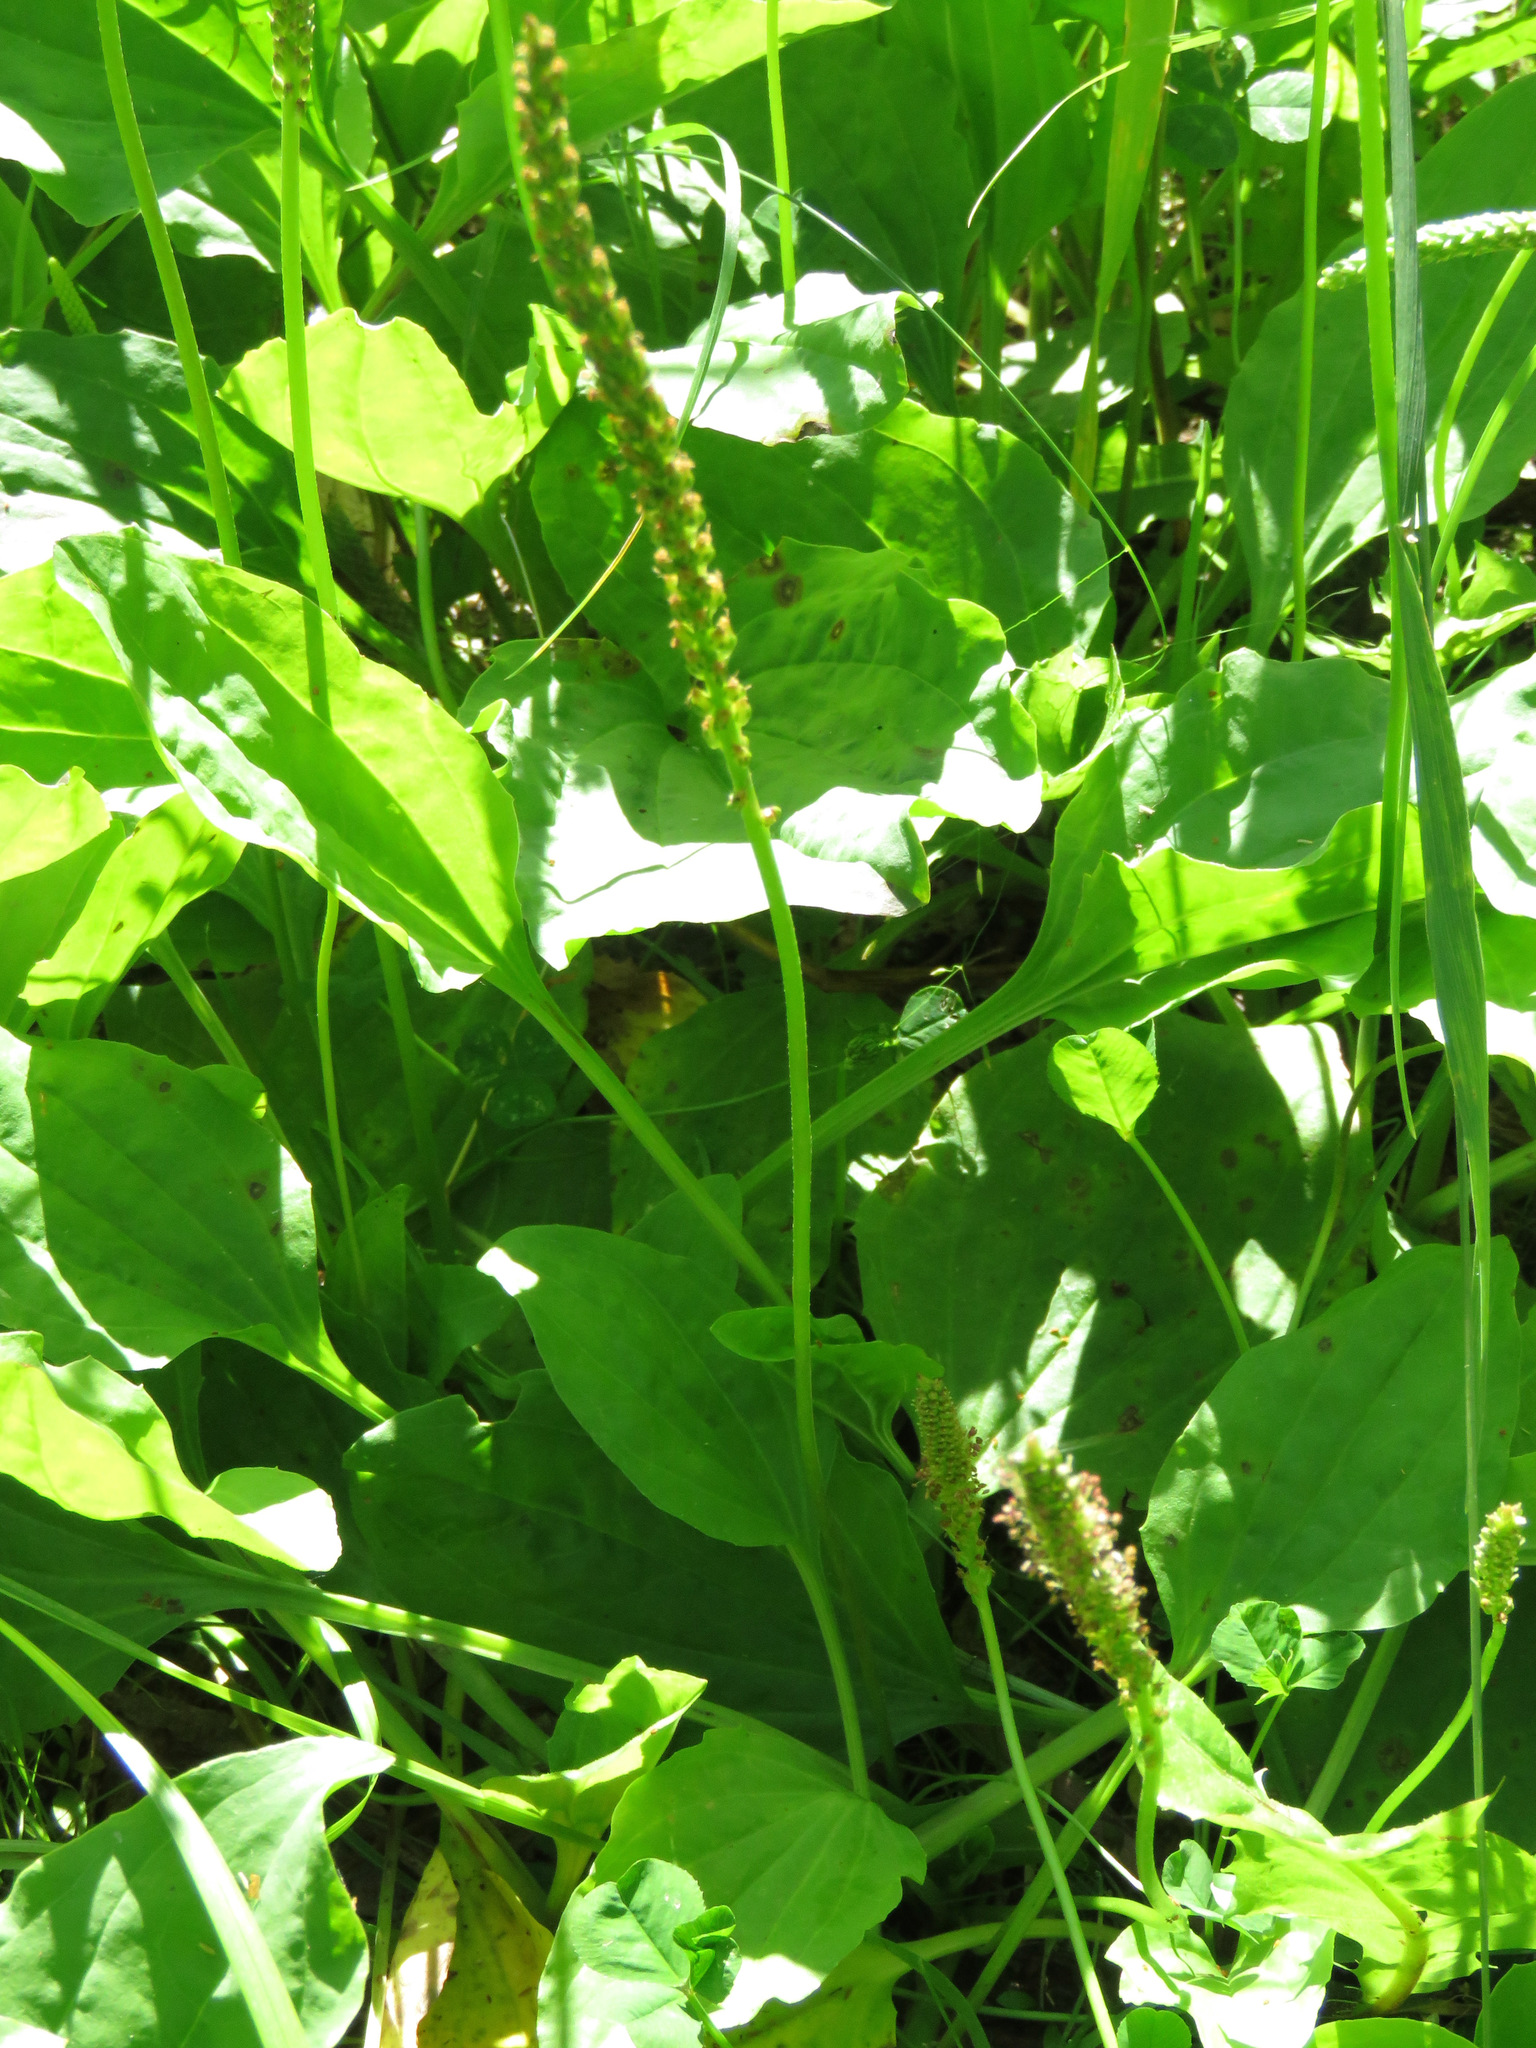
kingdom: Plantae
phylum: Tracheophyta
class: Magnoliopsida
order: Lamiales
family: Plantaginaceae
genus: Plantago
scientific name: Plantago major
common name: Common plantain
